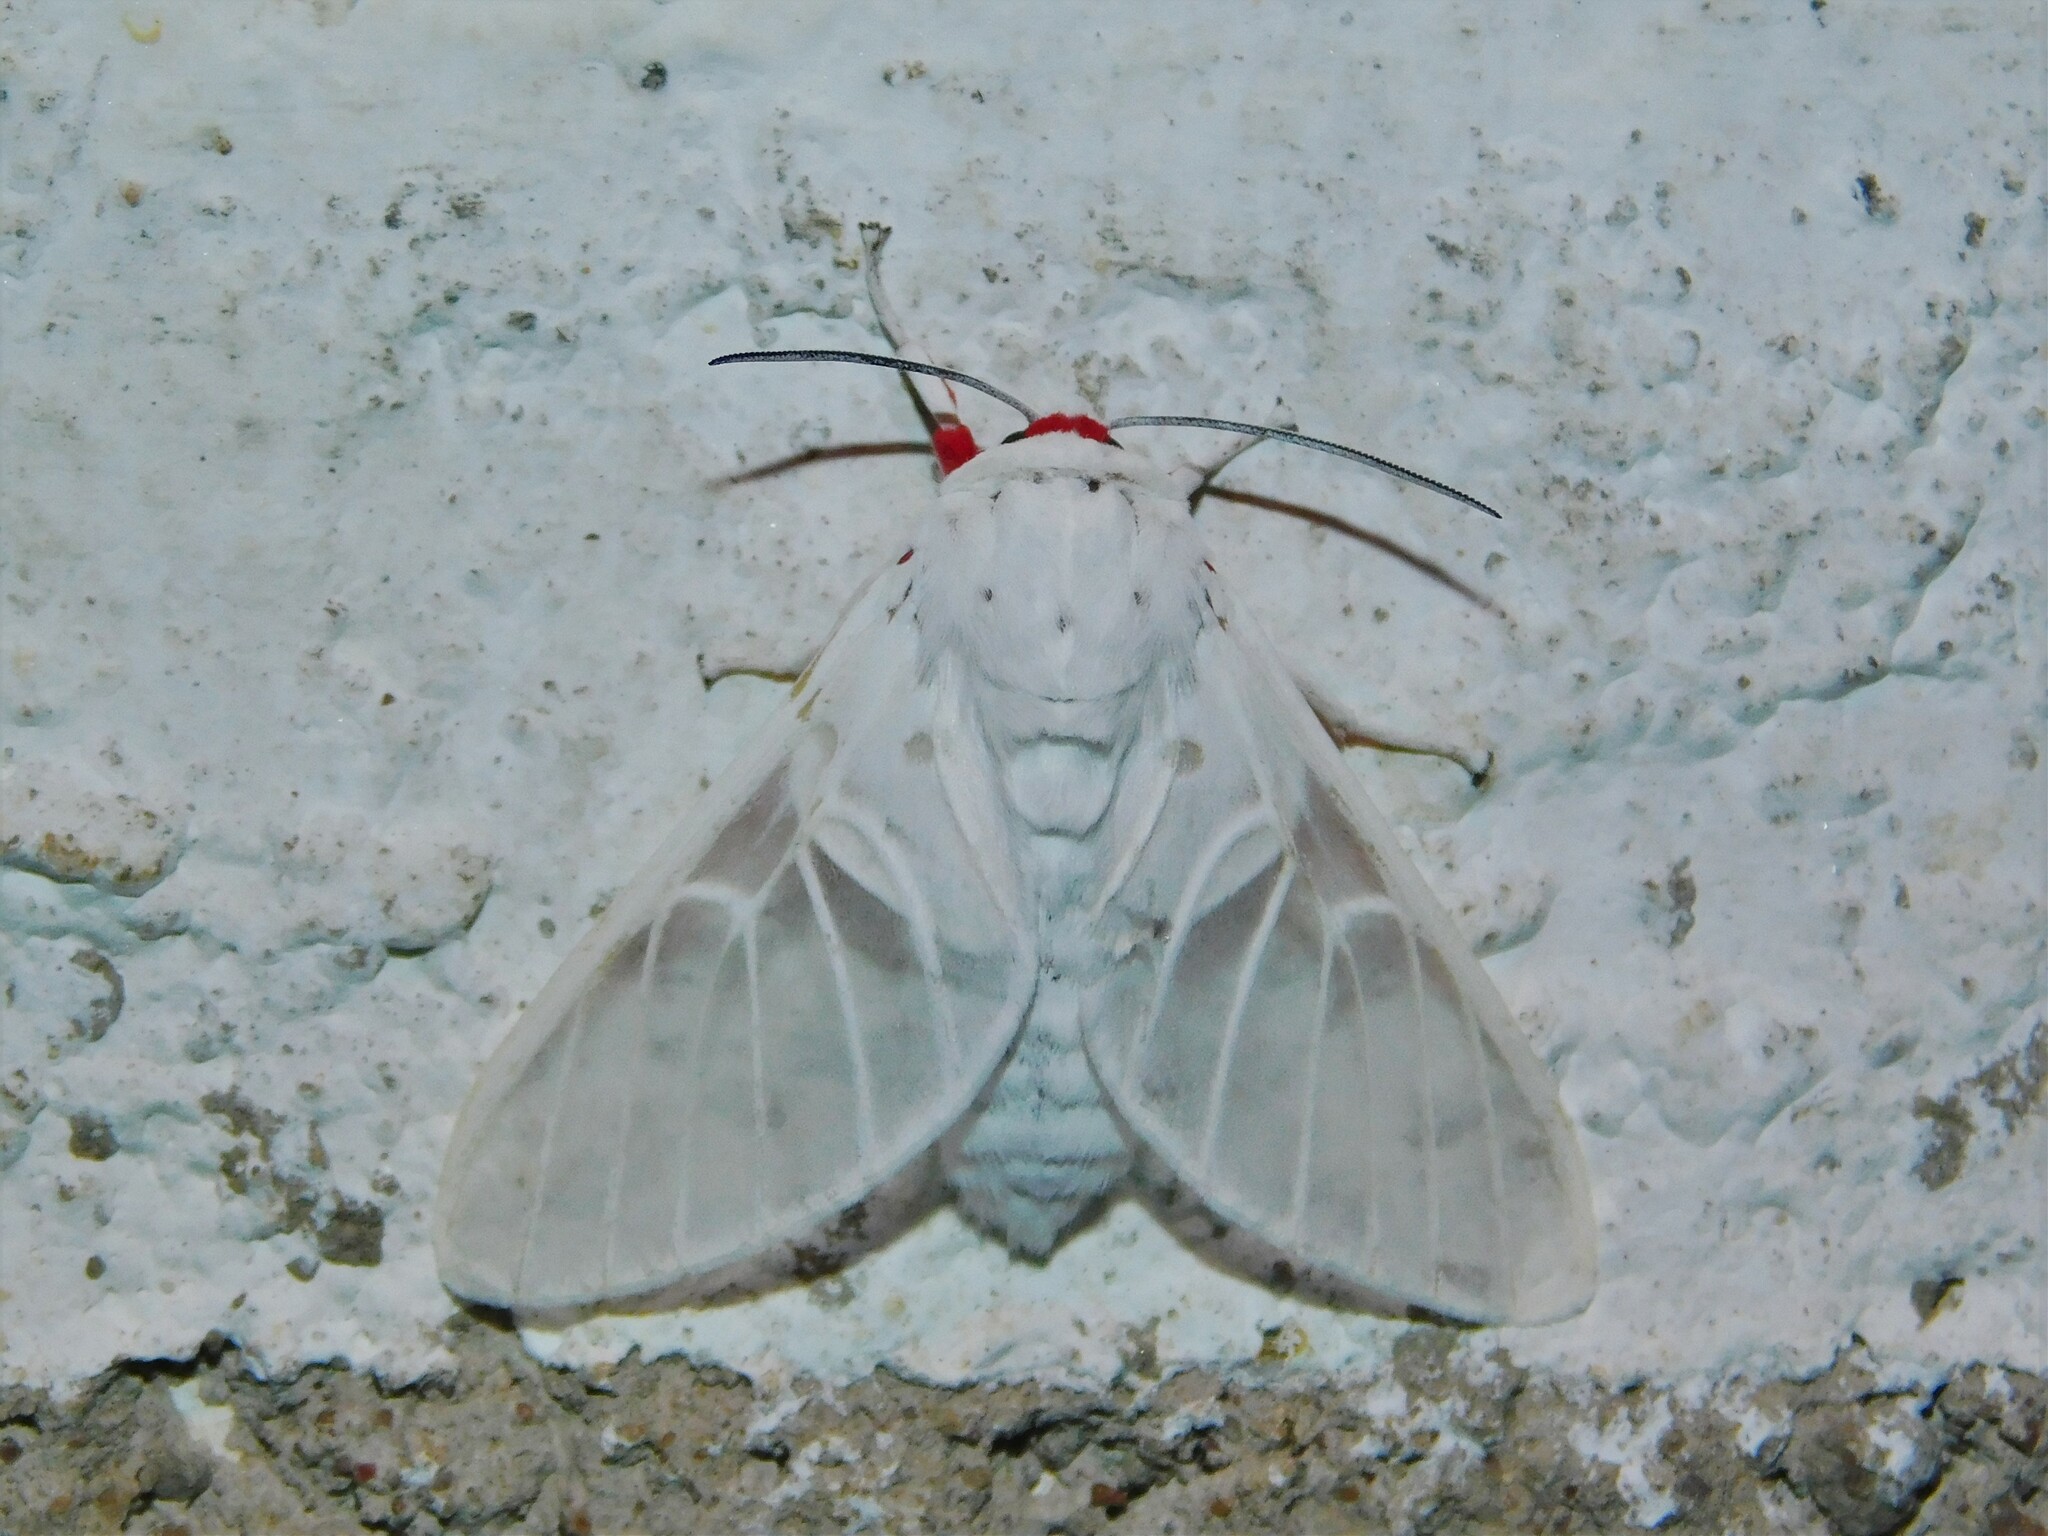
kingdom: Animalia
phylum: Arthropoda
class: Insecta
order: Lepidoptera
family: Erebidae
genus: Balacra
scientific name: Balacra pulchra
